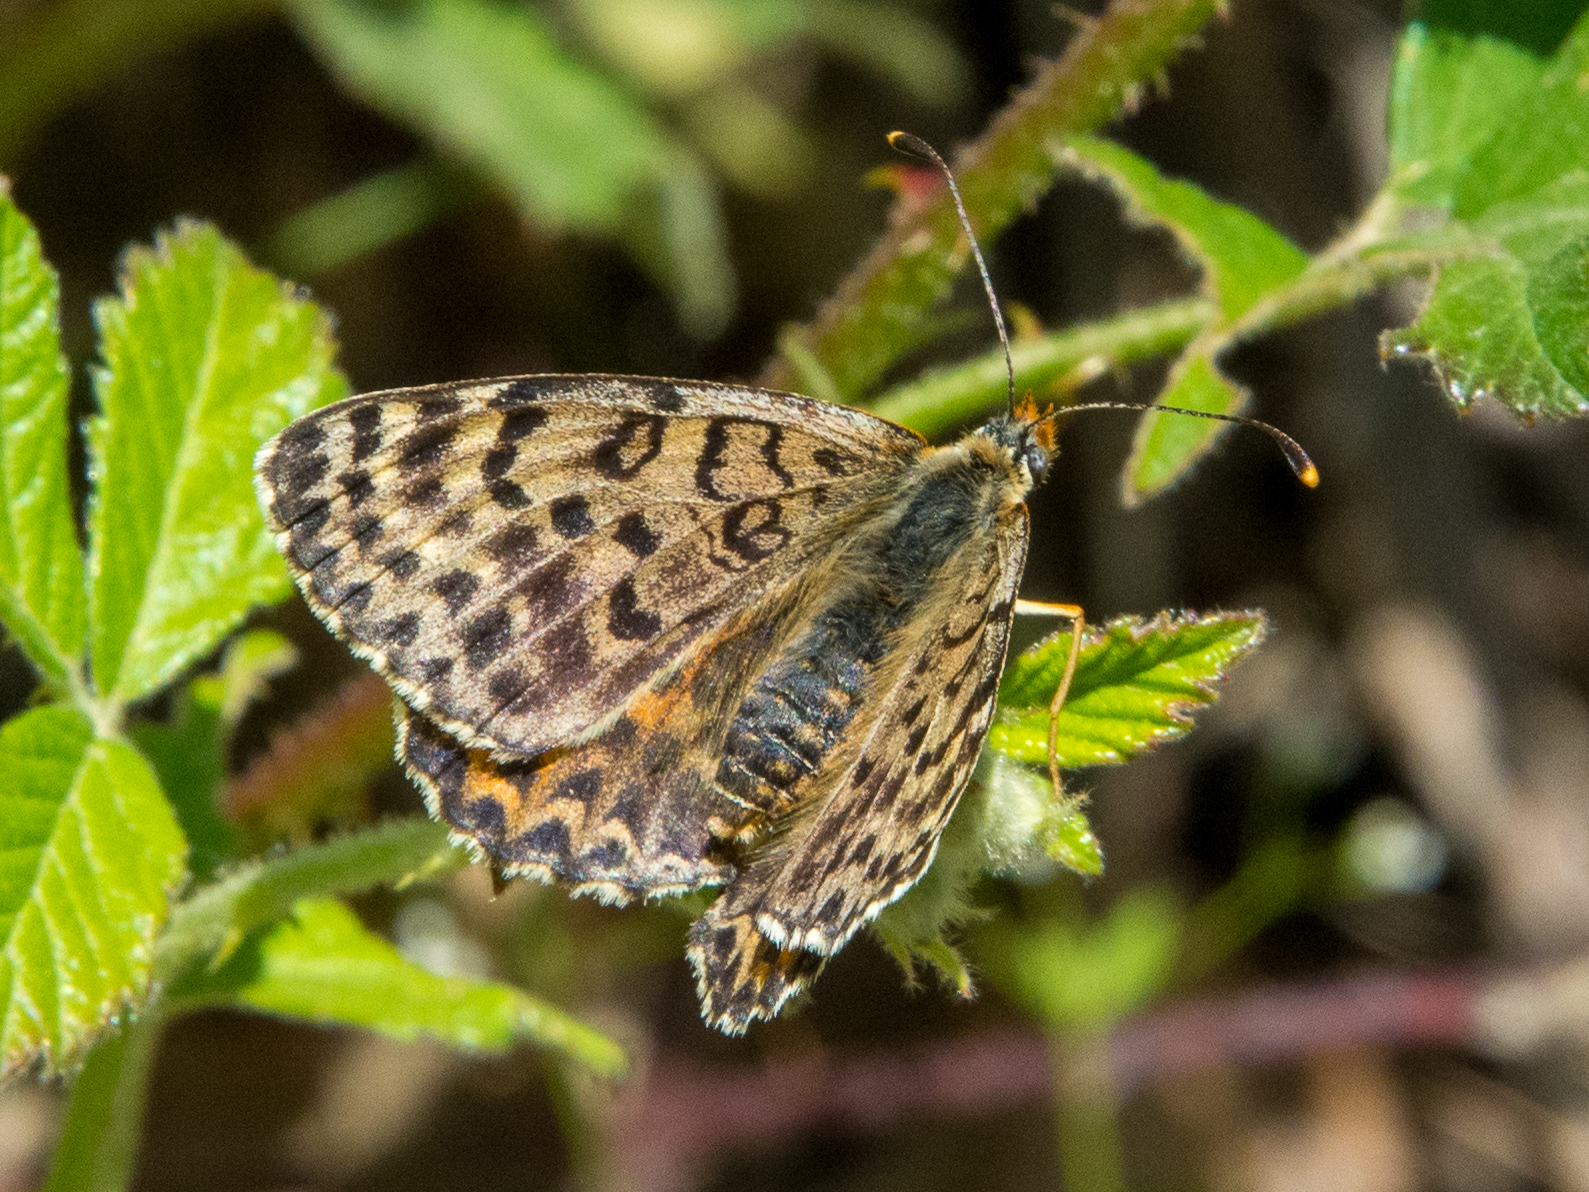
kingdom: Animalia
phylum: Arthropoda
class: Insecta
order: Lepidoptera
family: Nymphalidae
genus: Melitaea
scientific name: Melitaea didyma
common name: Spotted fritillary
